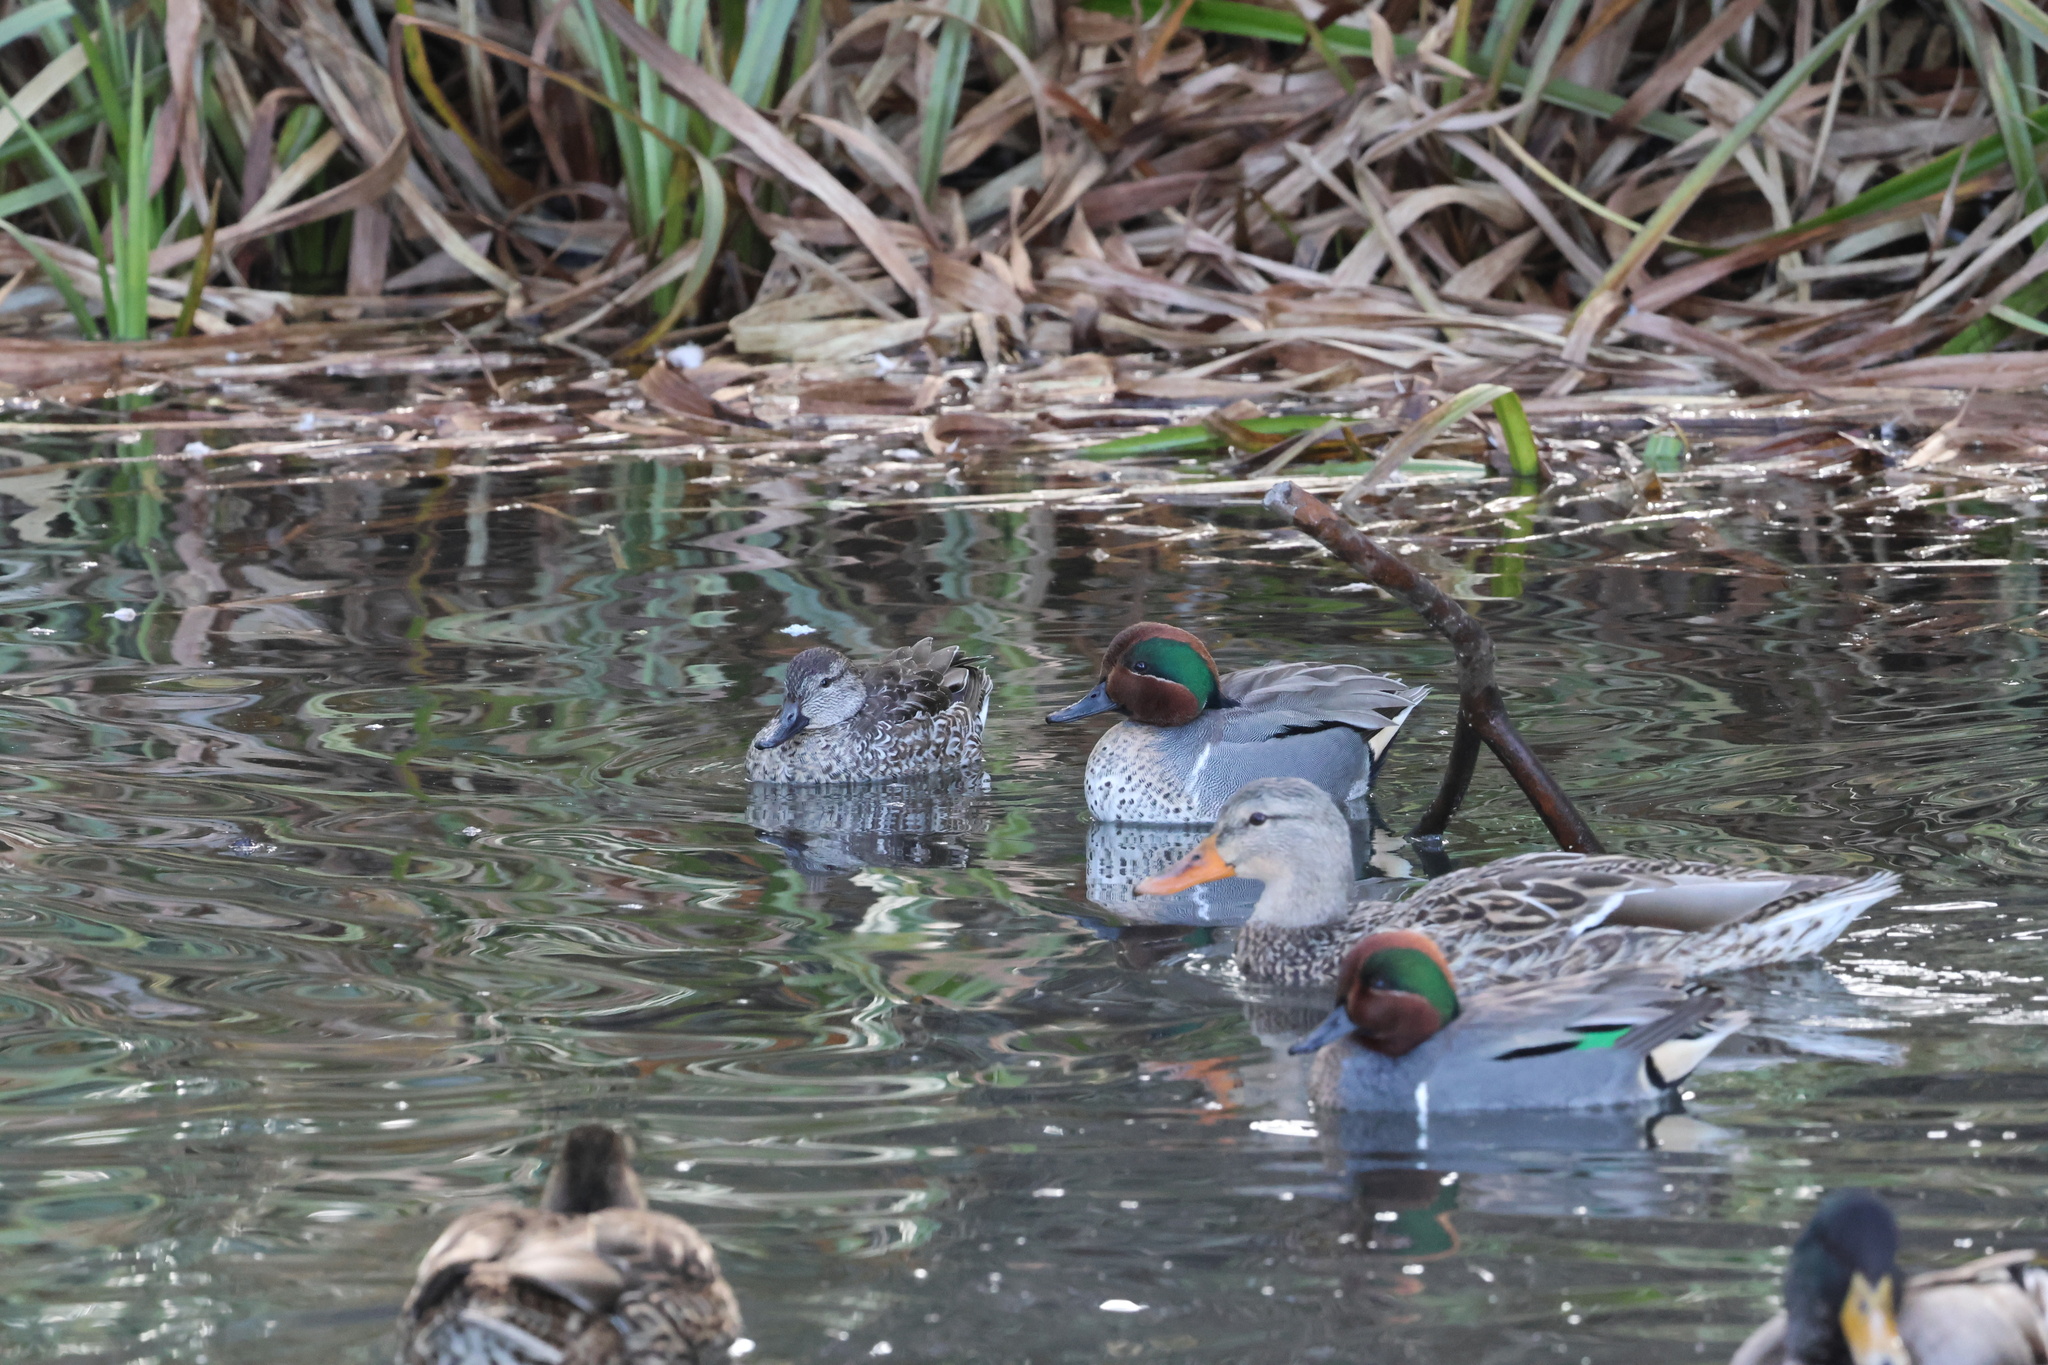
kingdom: Animalia
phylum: Chordata
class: Aves
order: Anseriformes
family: Anatidae
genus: Anas
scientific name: Anas crecca
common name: Eurasian teal
